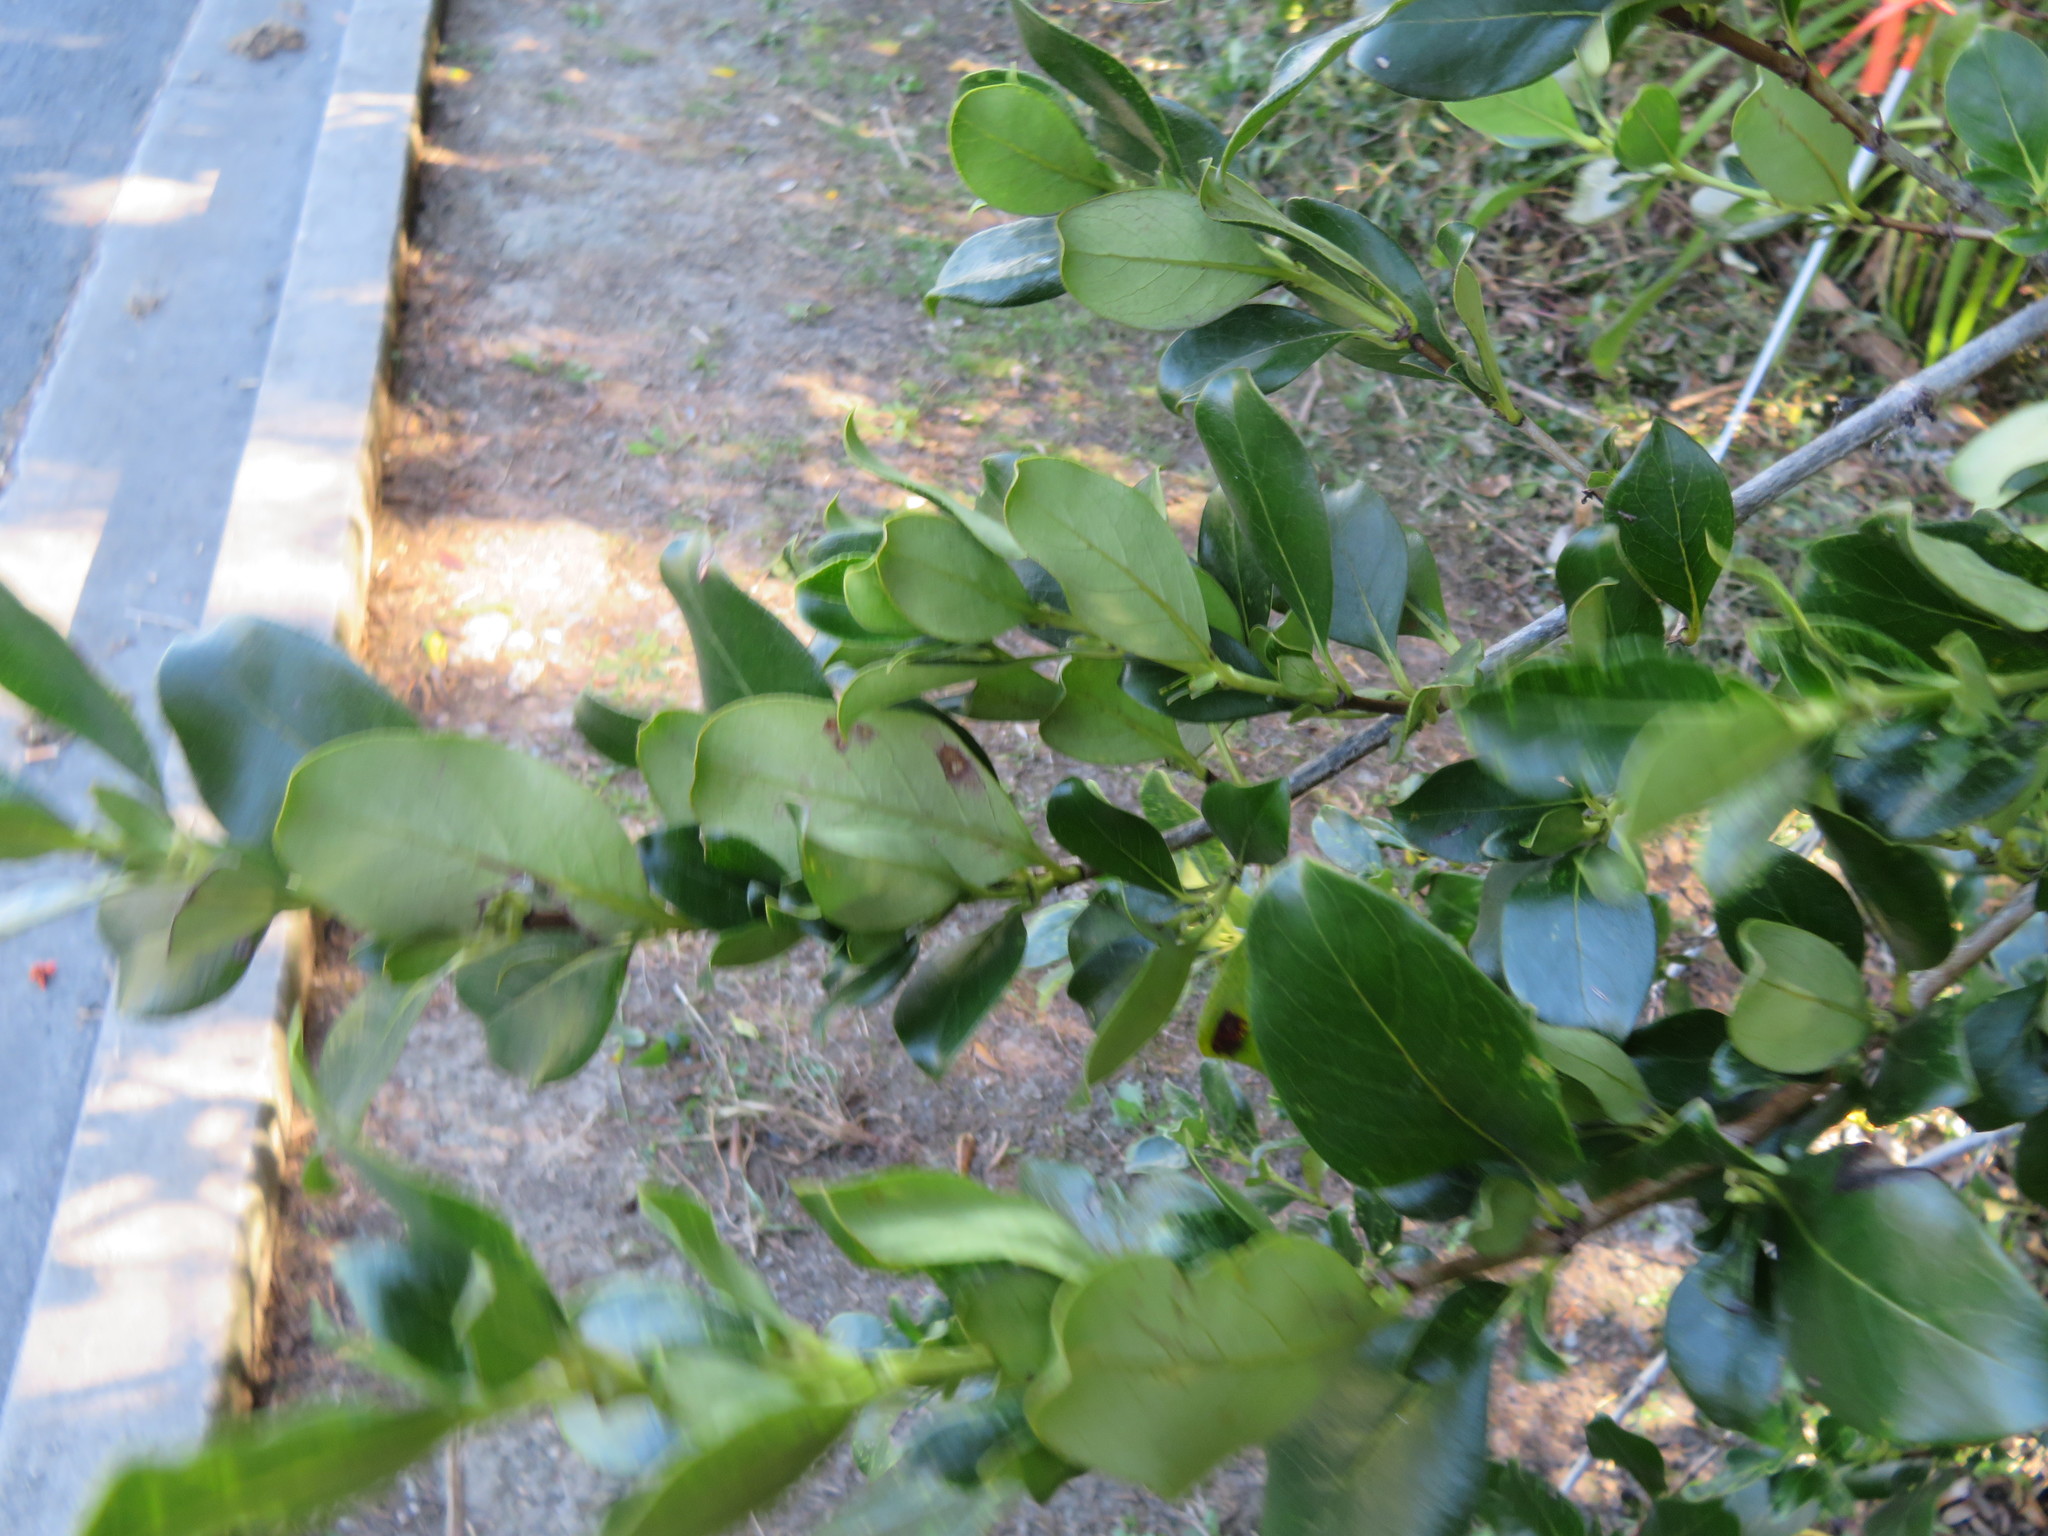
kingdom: Plantae
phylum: Tracheophyta
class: Magnoliopsida
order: Gentianales
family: Rubiaceae
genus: Coprosma
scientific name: Coprosma robusta
